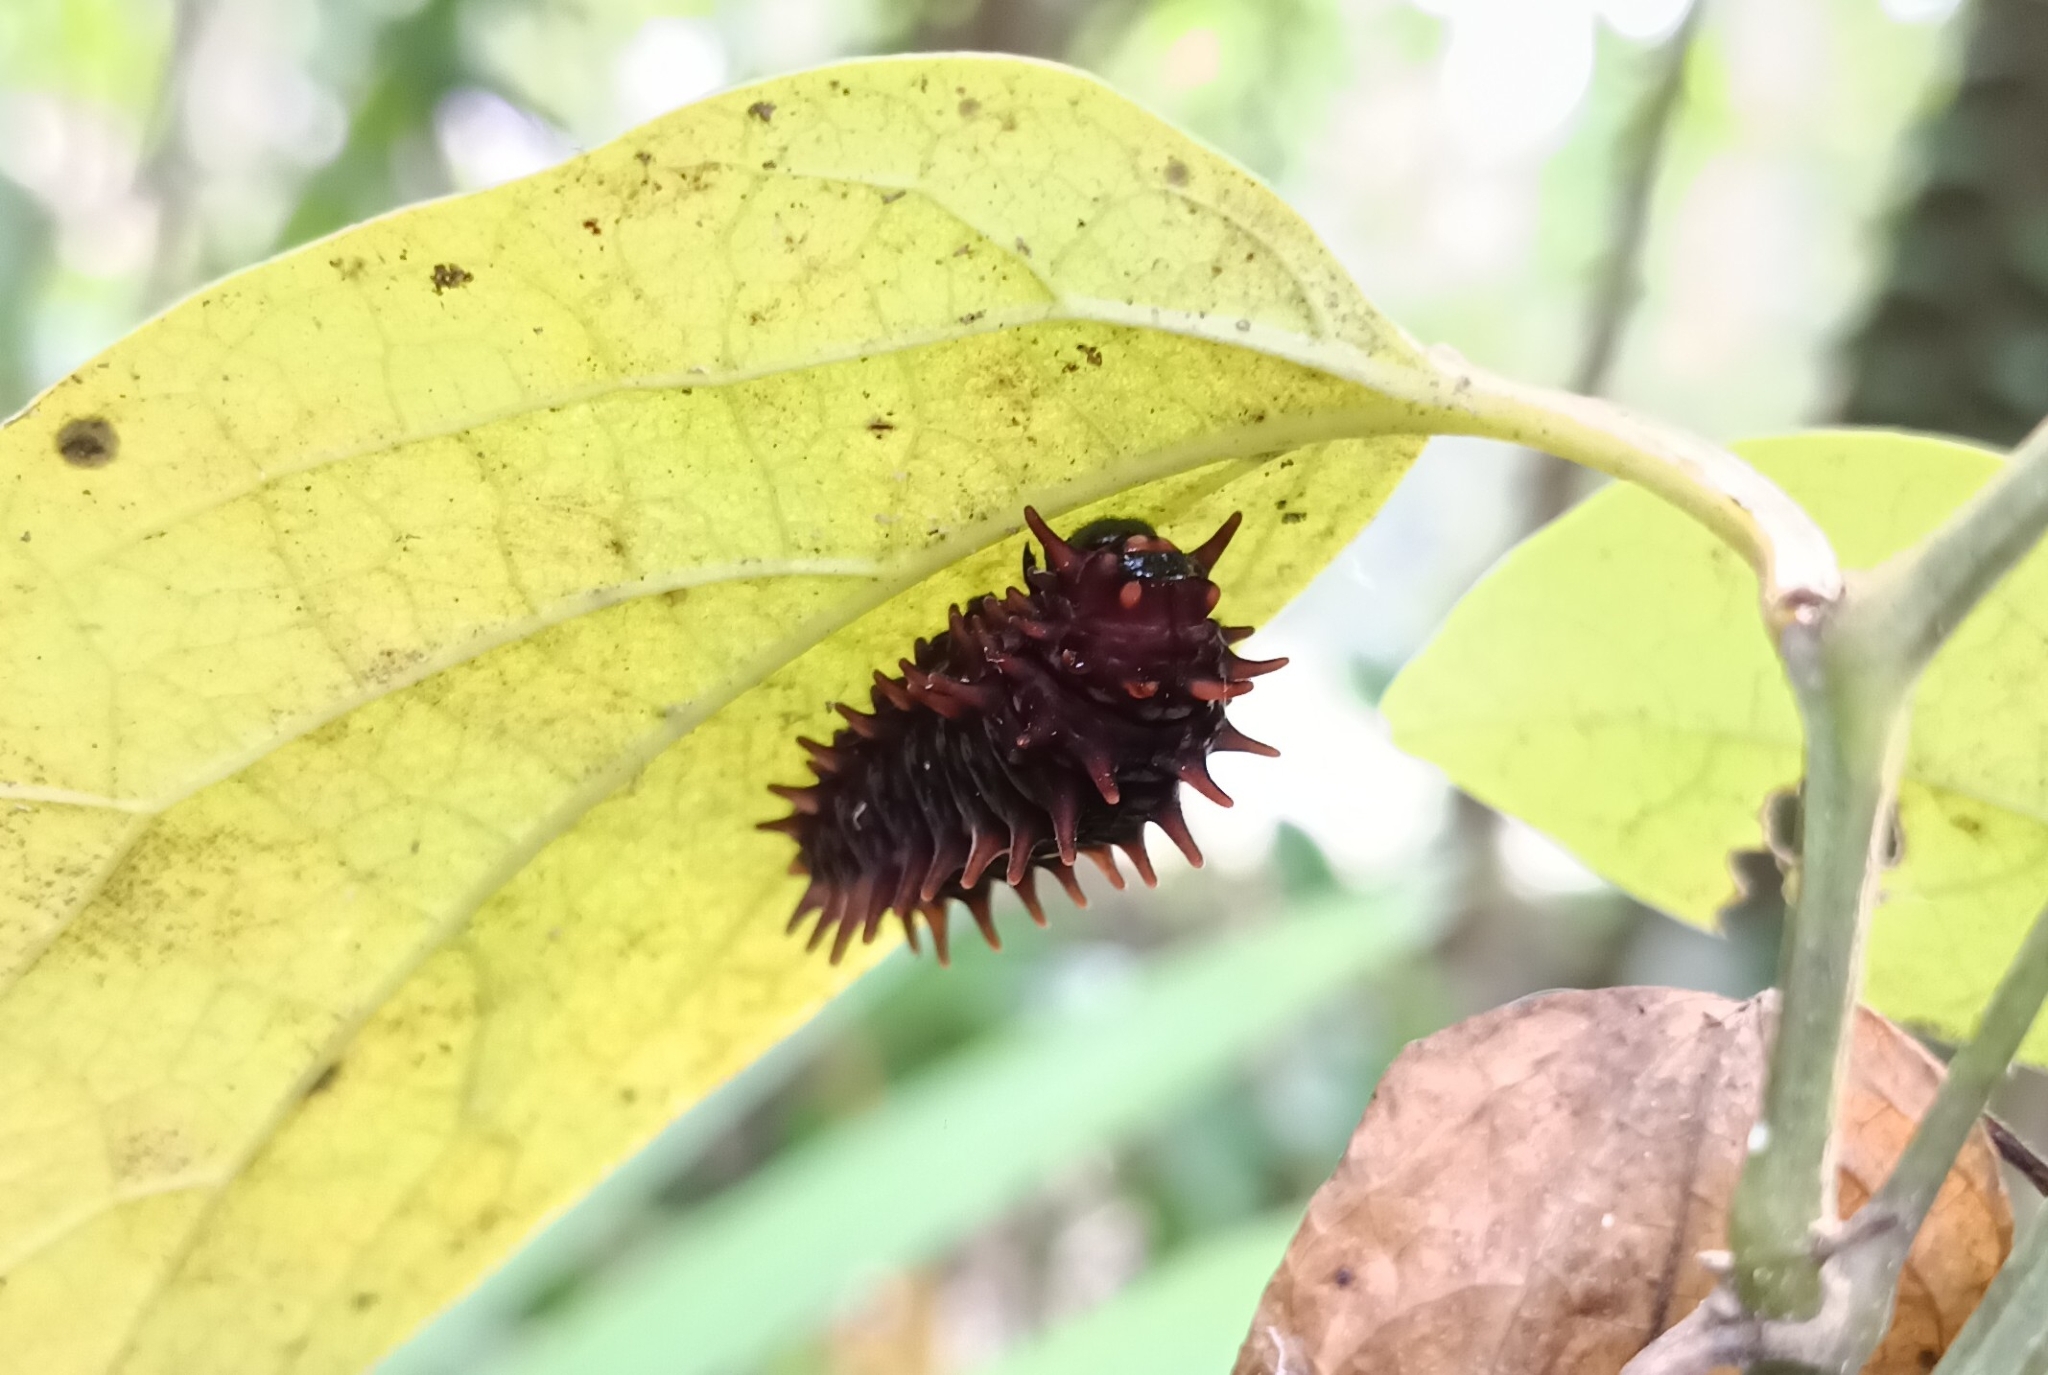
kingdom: Animalia
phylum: Arthropoda
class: Insecta
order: Lepidoptera
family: Papilionidae
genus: Pachliopta
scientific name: Pachliopta hector
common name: Crimson rose
